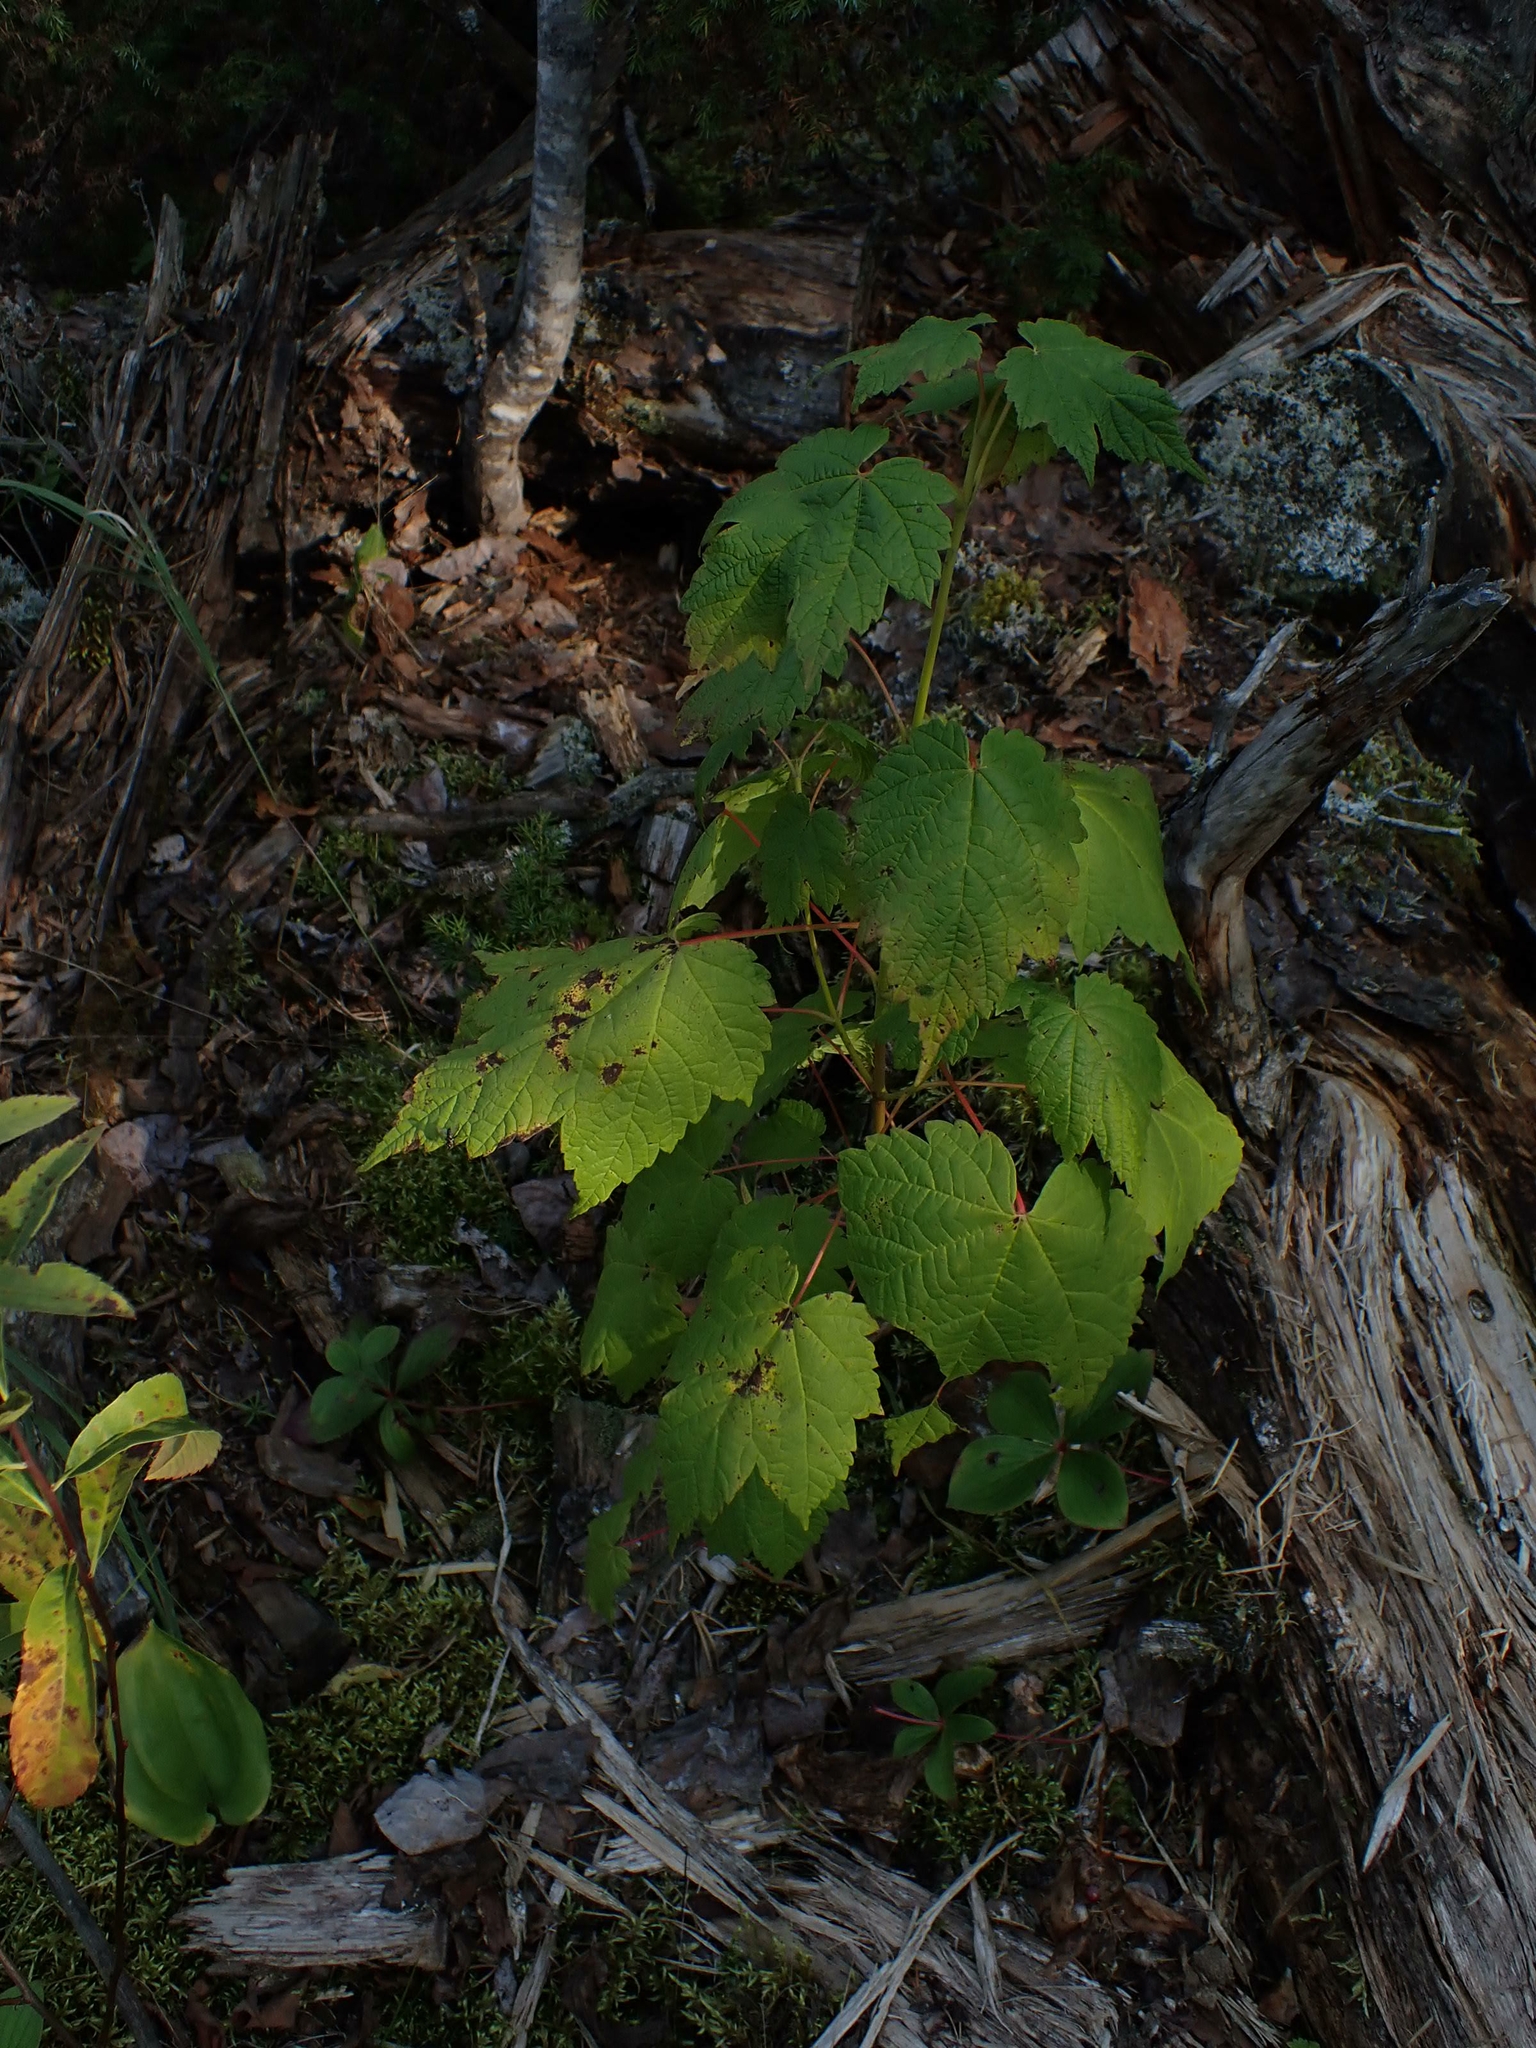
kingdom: Plantae
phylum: Tracheophyta
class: Magnoliopsida
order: Sapindales
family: Sapindaceae
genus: Acer
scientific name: Acer spicatum
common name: Mountain maple
